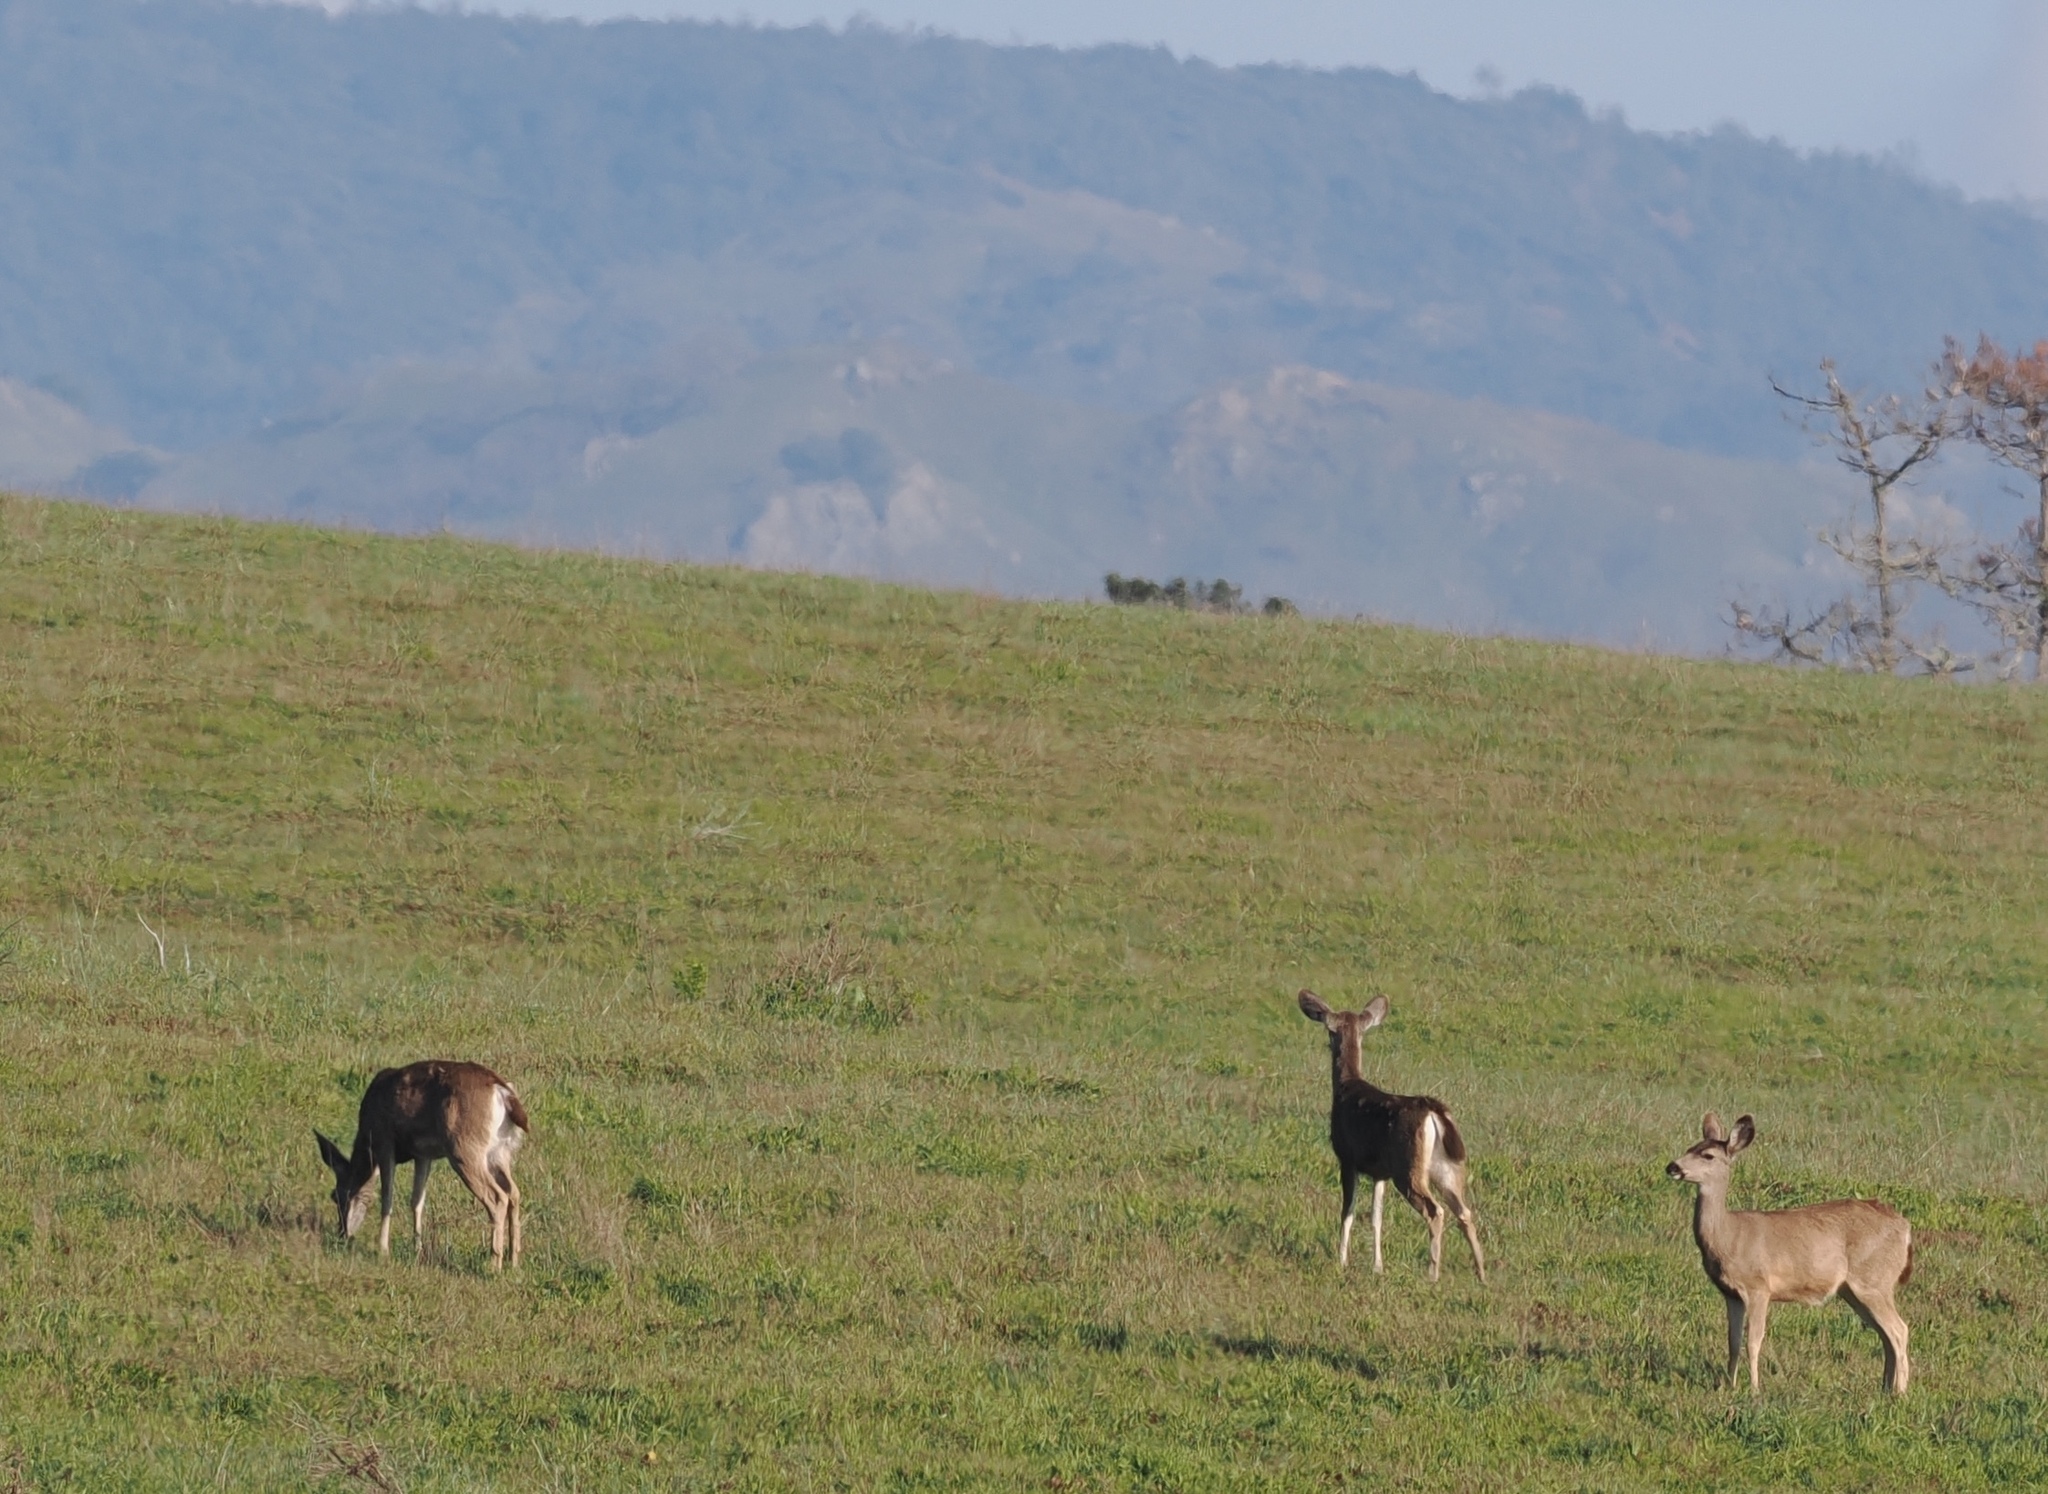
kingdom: Animalia
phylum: Chordata
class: Mammalia
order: Artiodactyla
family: Cervidae
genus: Odocoileus
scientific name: Odocoileus hemionus
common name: Mule deer
